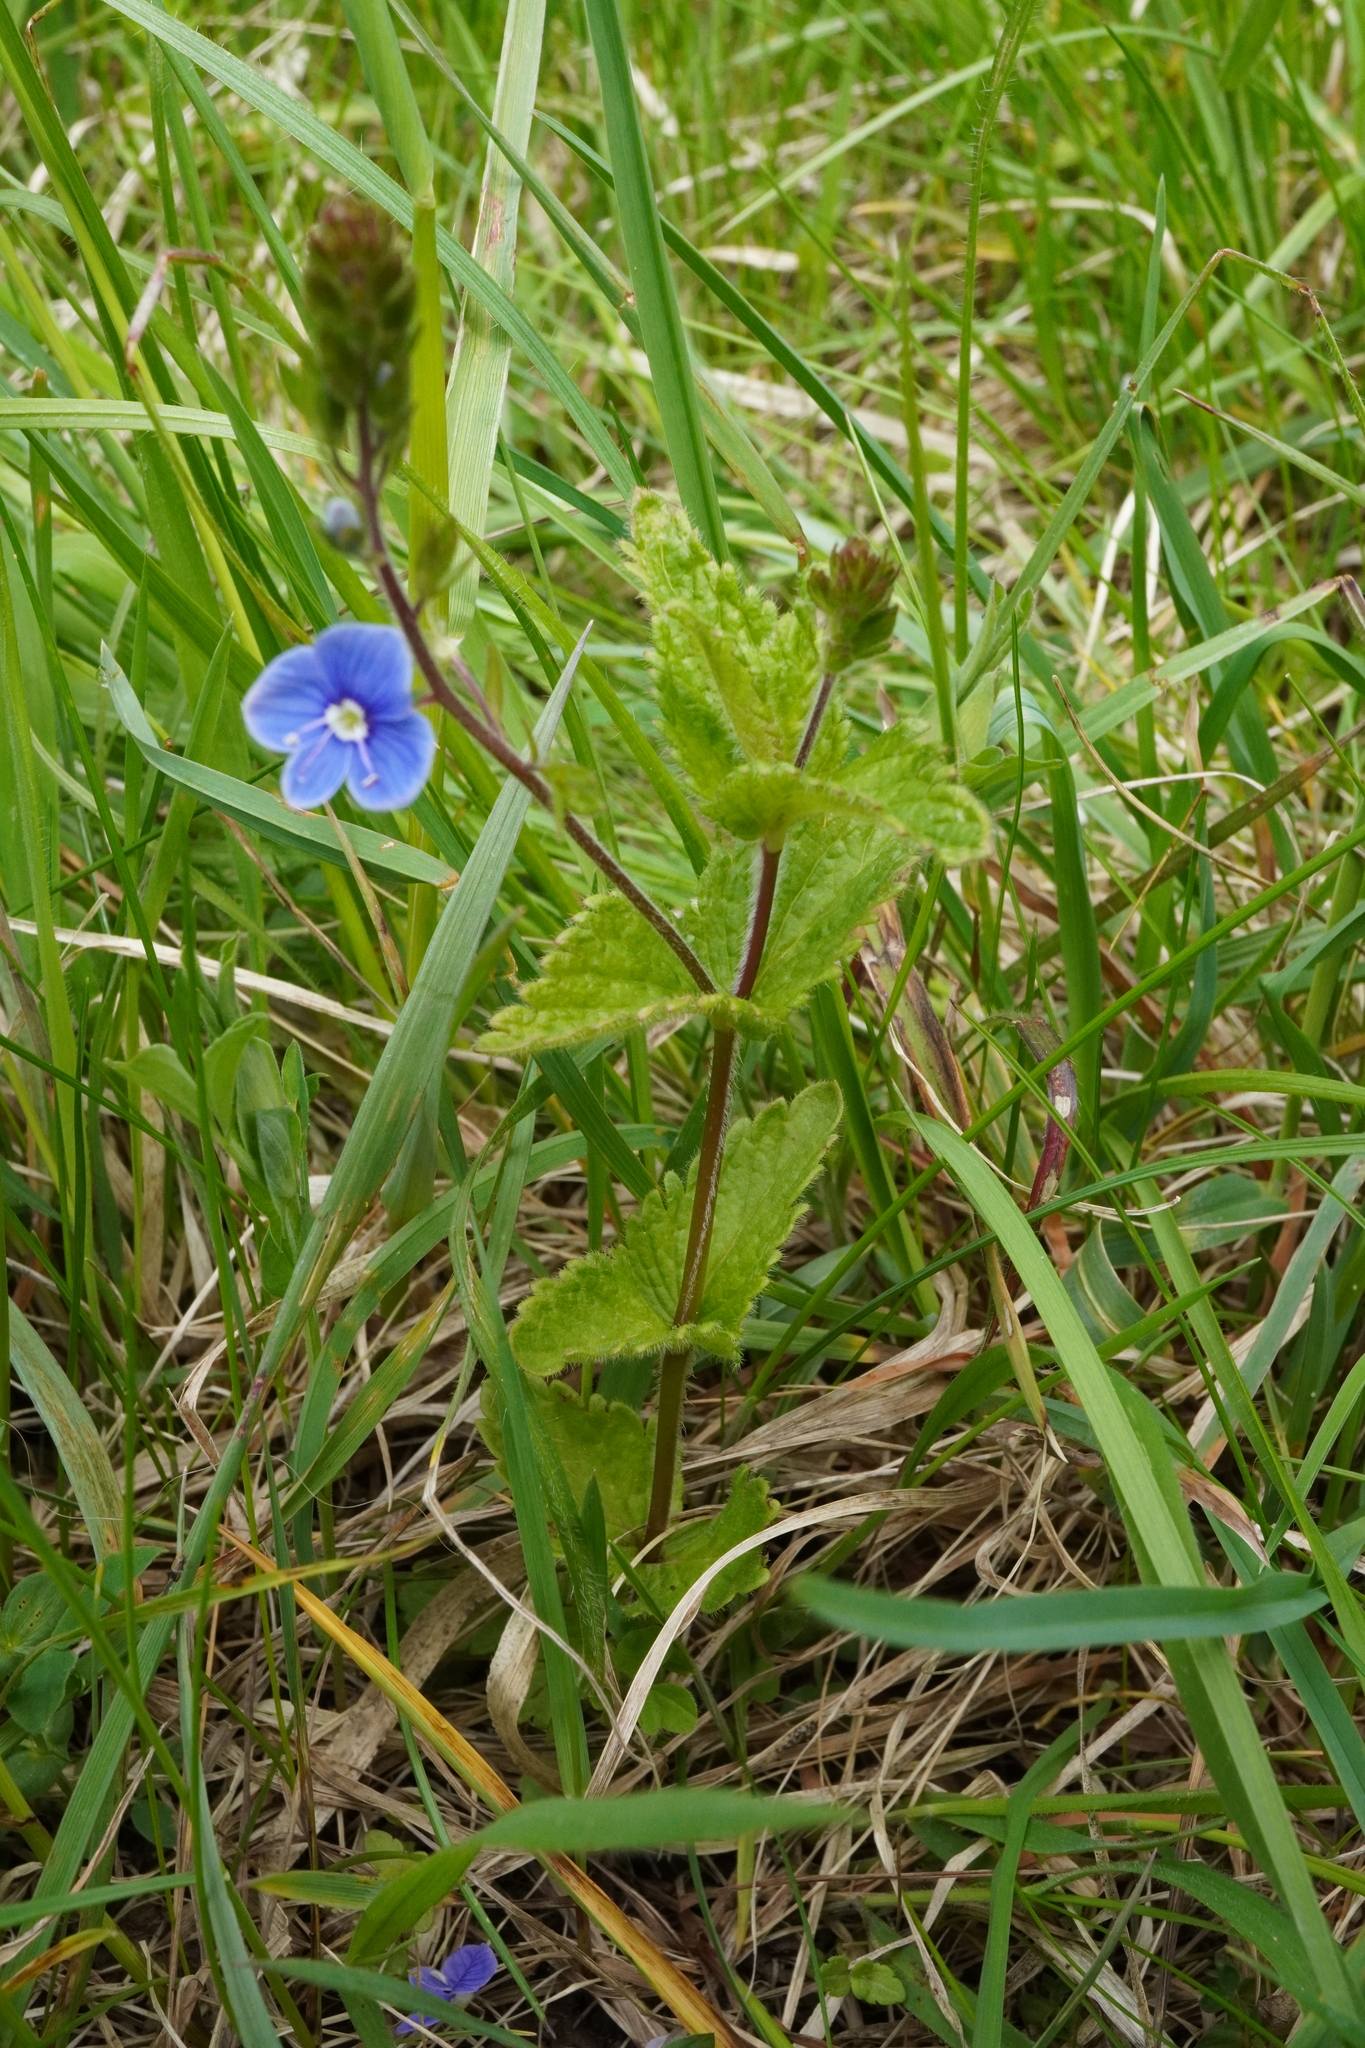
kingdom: Plantae
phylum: Tracheophyta
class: Magnoliopsida
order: Lamiales
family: Plantaginaceae
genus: Veronica
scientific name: Veronica chamaedrys
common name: Germander speedwell
